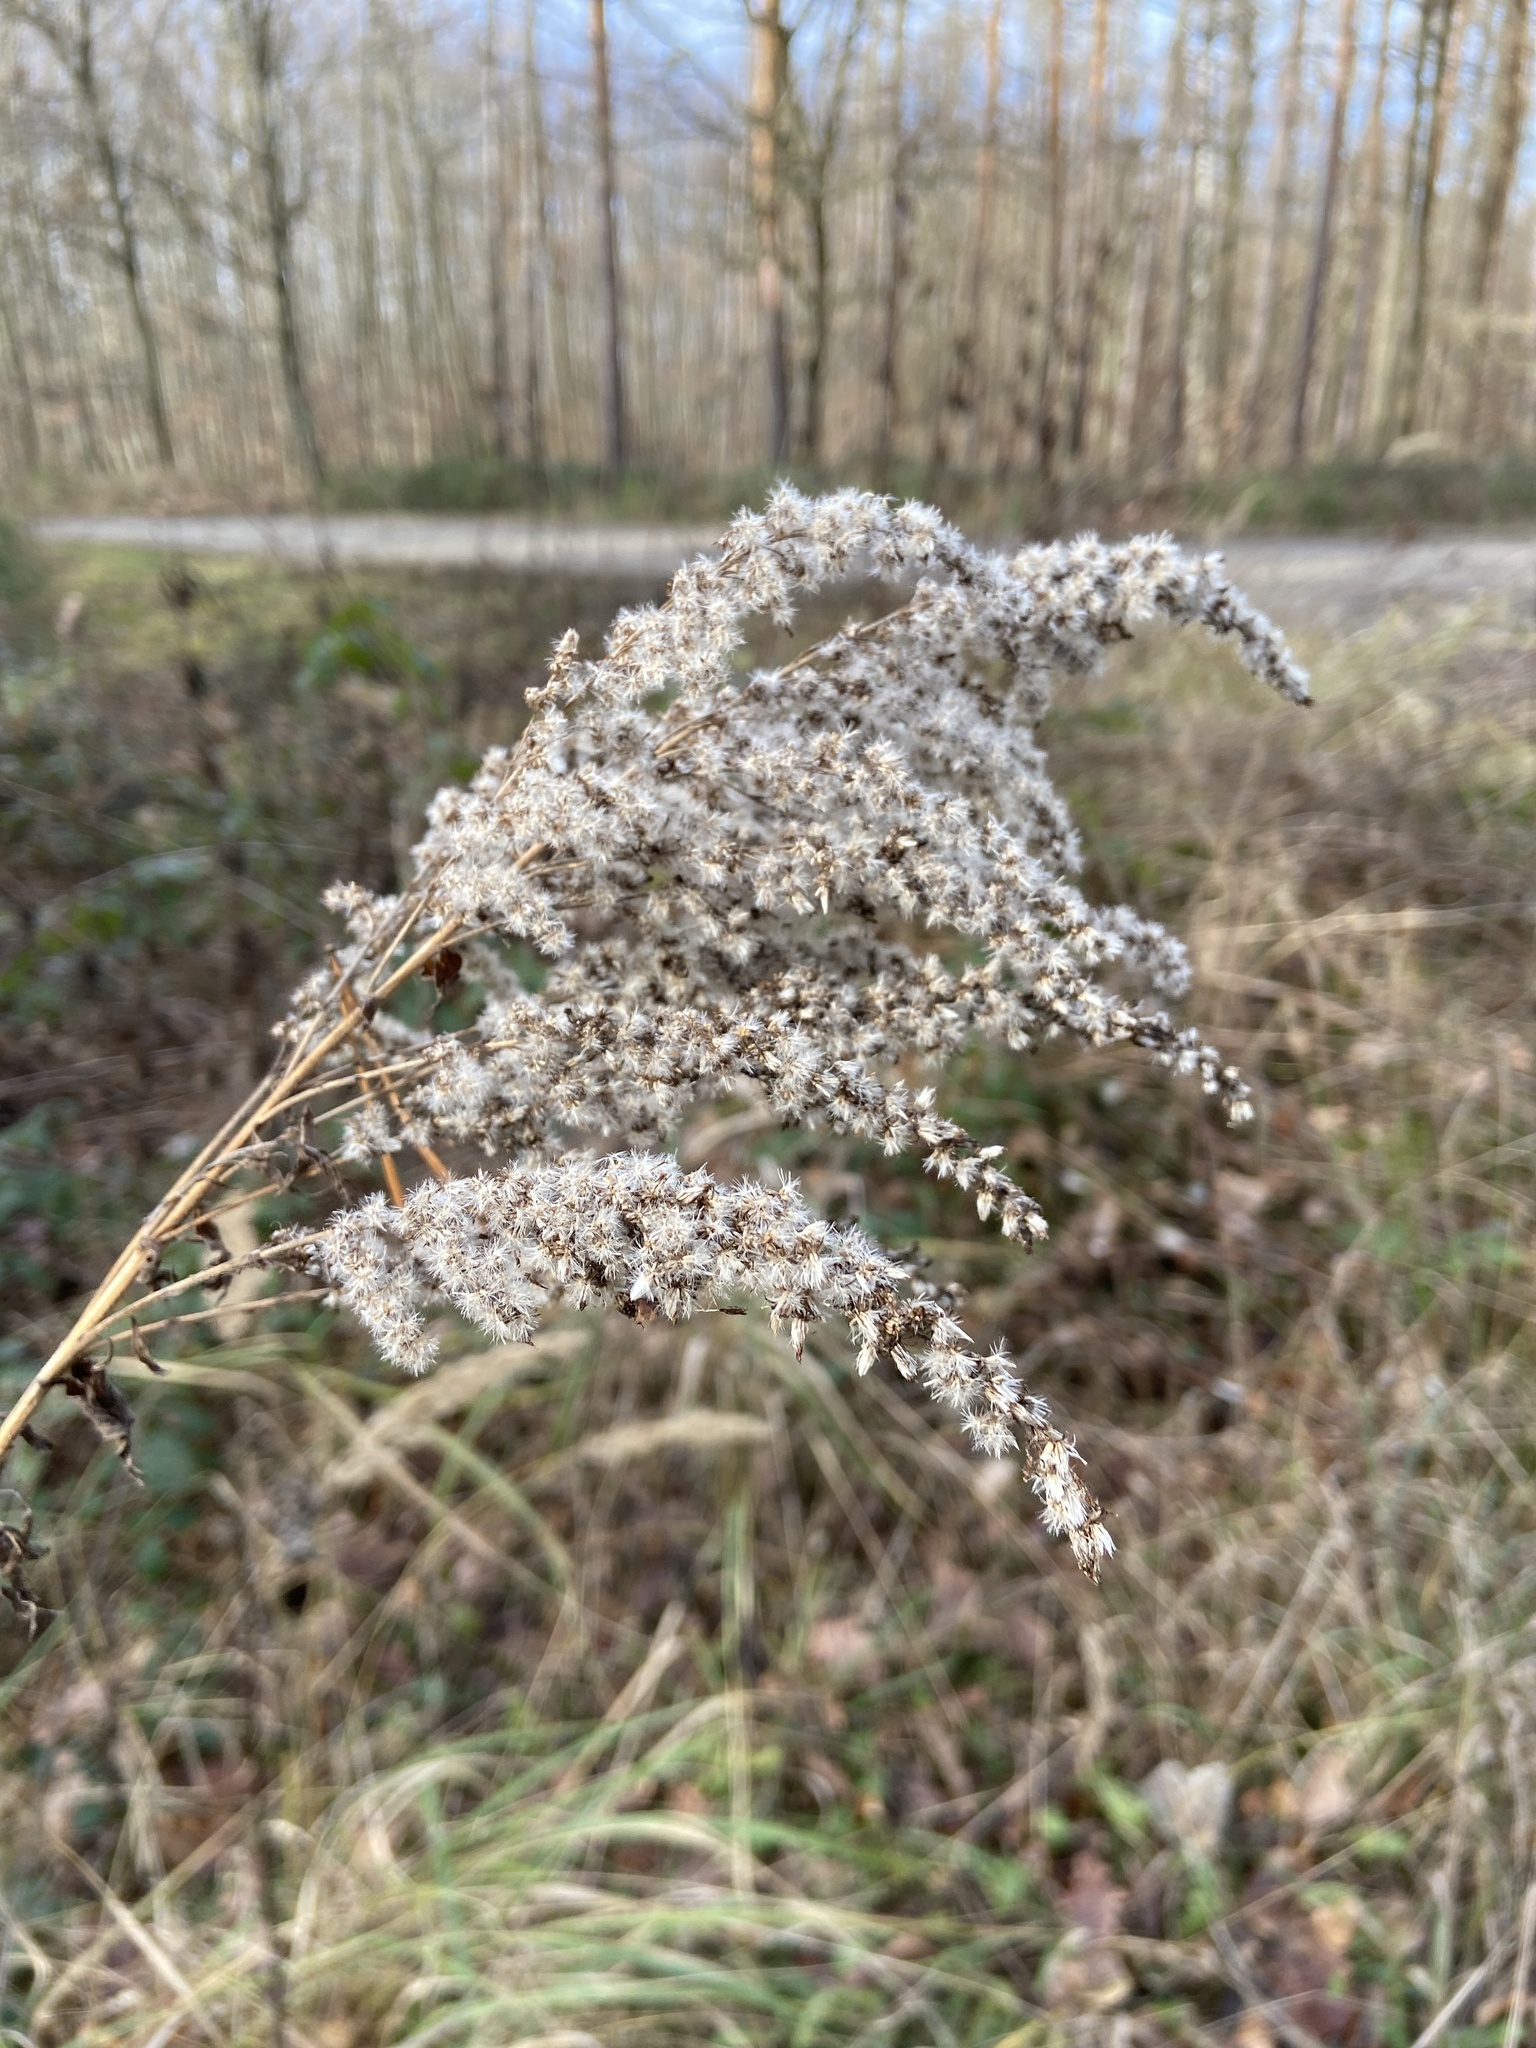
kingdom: Plantae
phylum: Tracheophyta
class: Magnoliopsida
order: Asterales
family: Asteraceae
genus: Solidago
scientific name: Solidago canadensis
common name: Canada goldenrod
